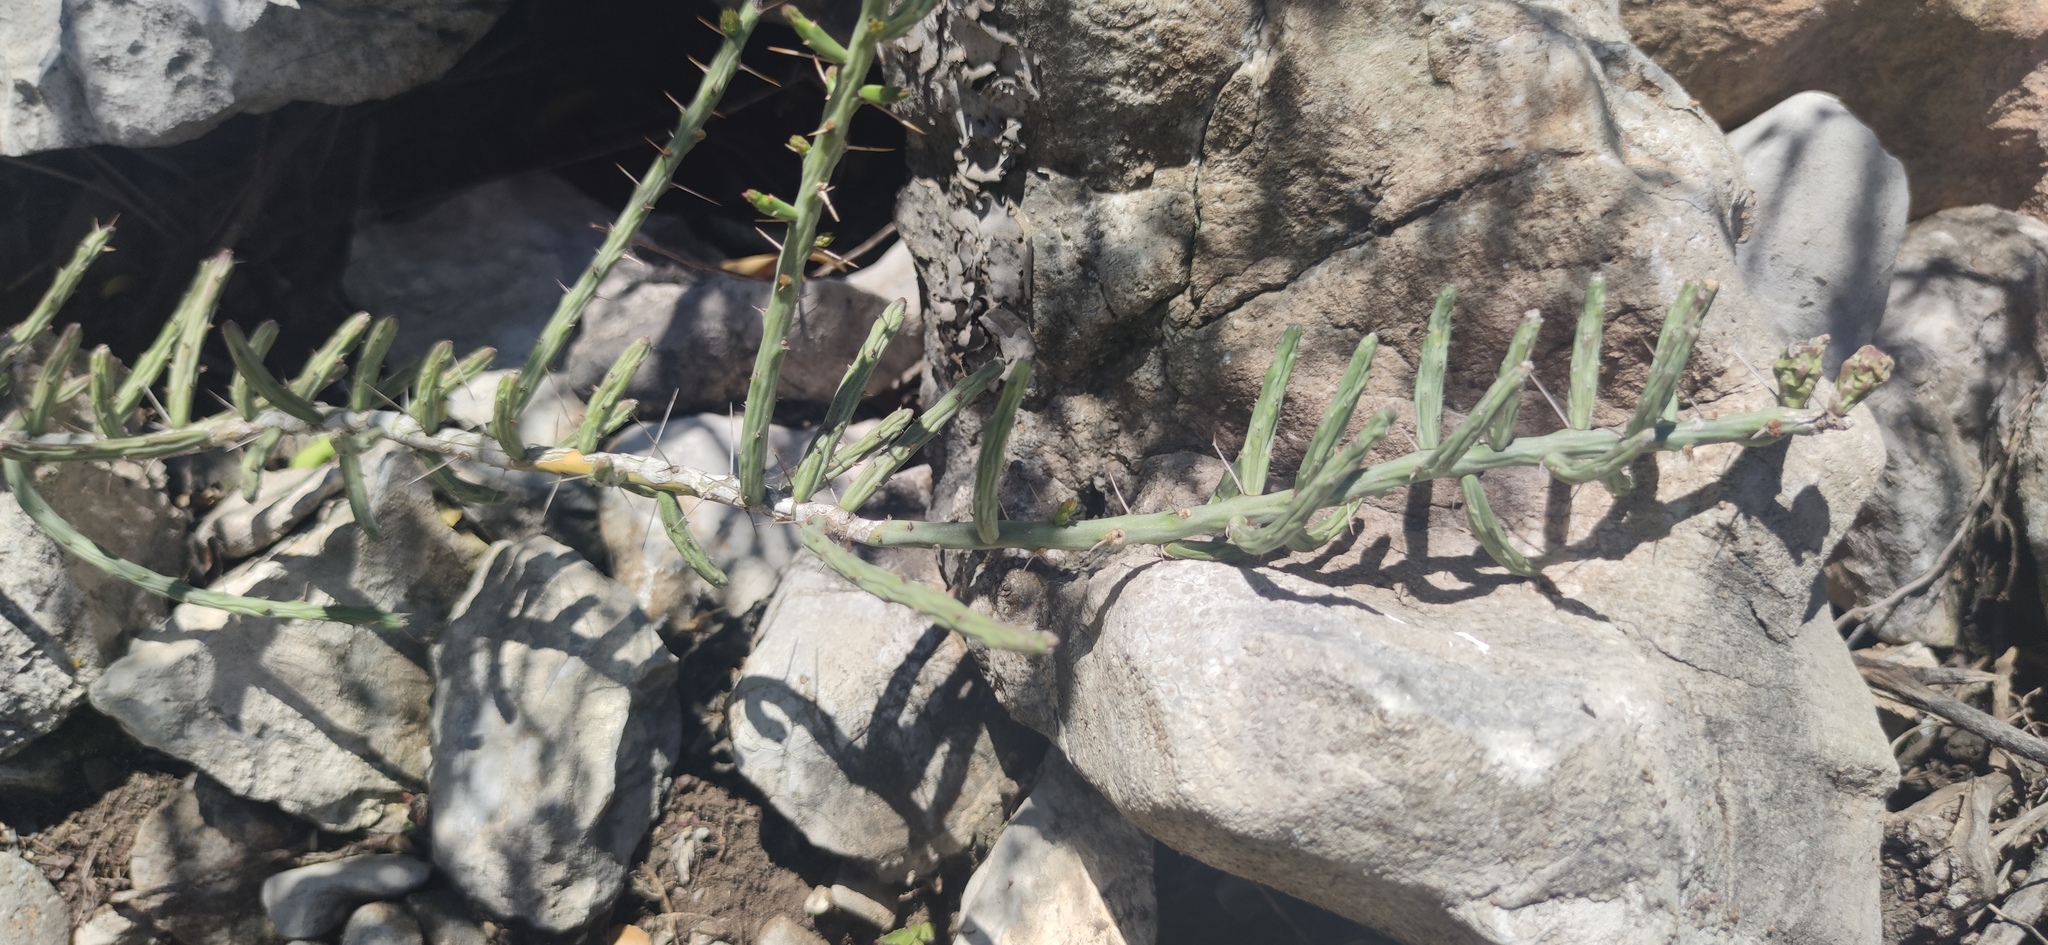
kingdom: Plantae
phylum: Tracheophyta
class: Magnoliopsida
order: Caryophyllales
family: Cactaceae
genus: Cylindropuntia
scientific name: Cylindropuntia leptocaulis
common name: Christmas cactus
